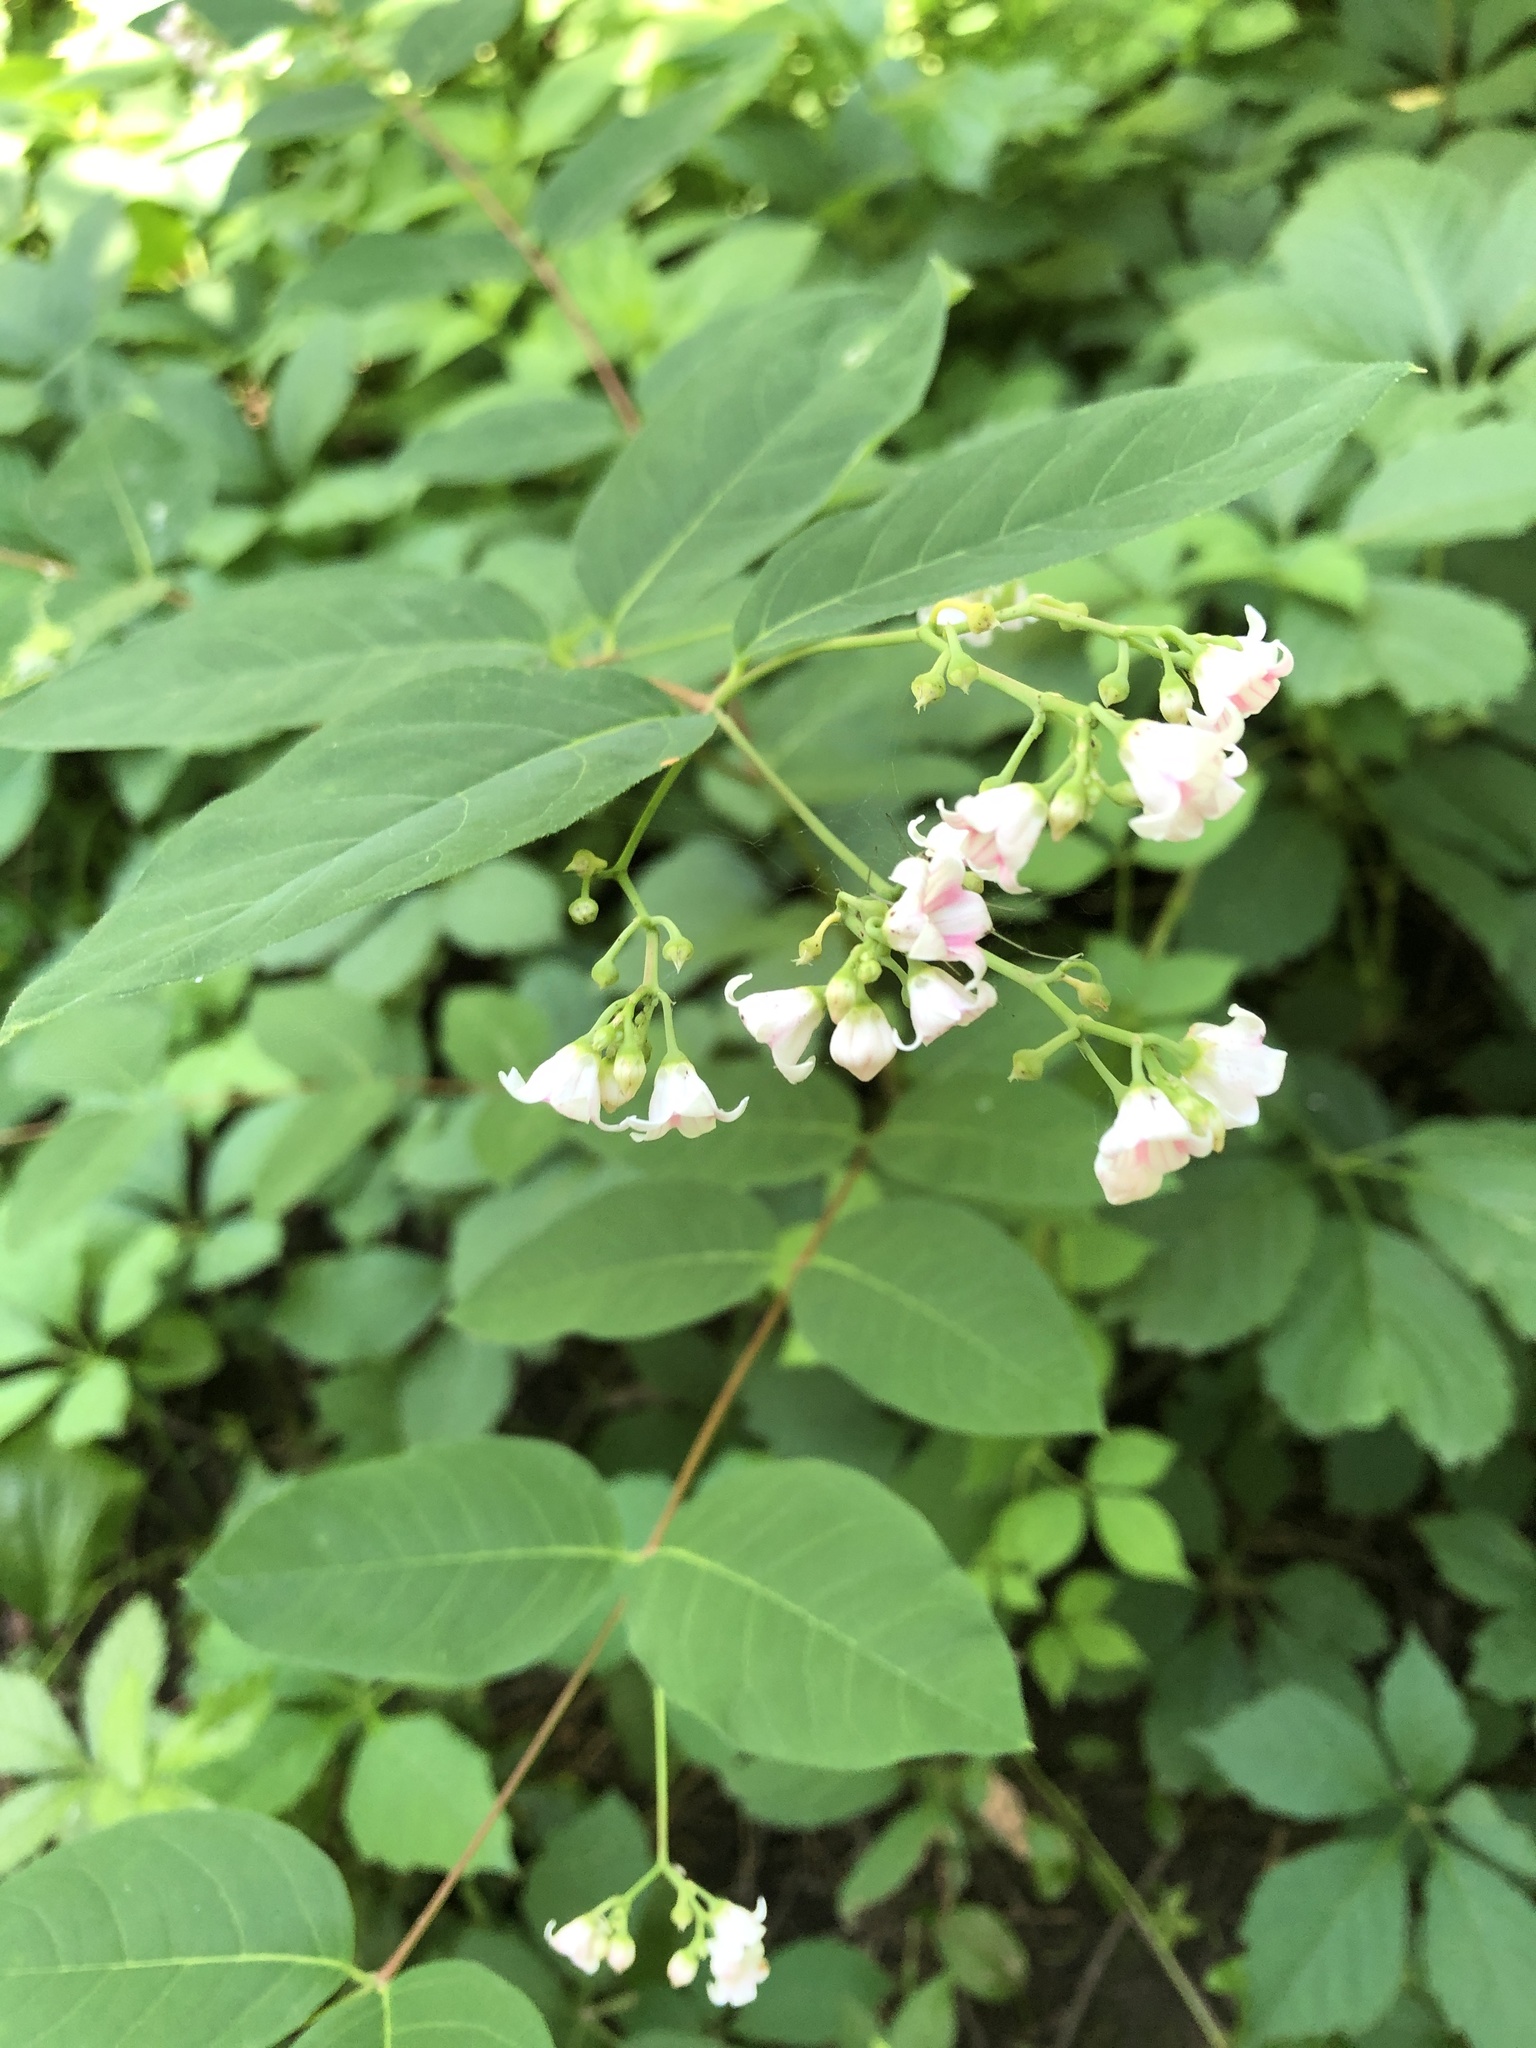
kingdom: Plantae
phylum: Tracheophyta
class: Magnoliopsida
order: Gentianales
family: Apocynaceae
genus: Apocynum
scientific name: Apocynum androsaemifolium
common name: Spreading dogbane
